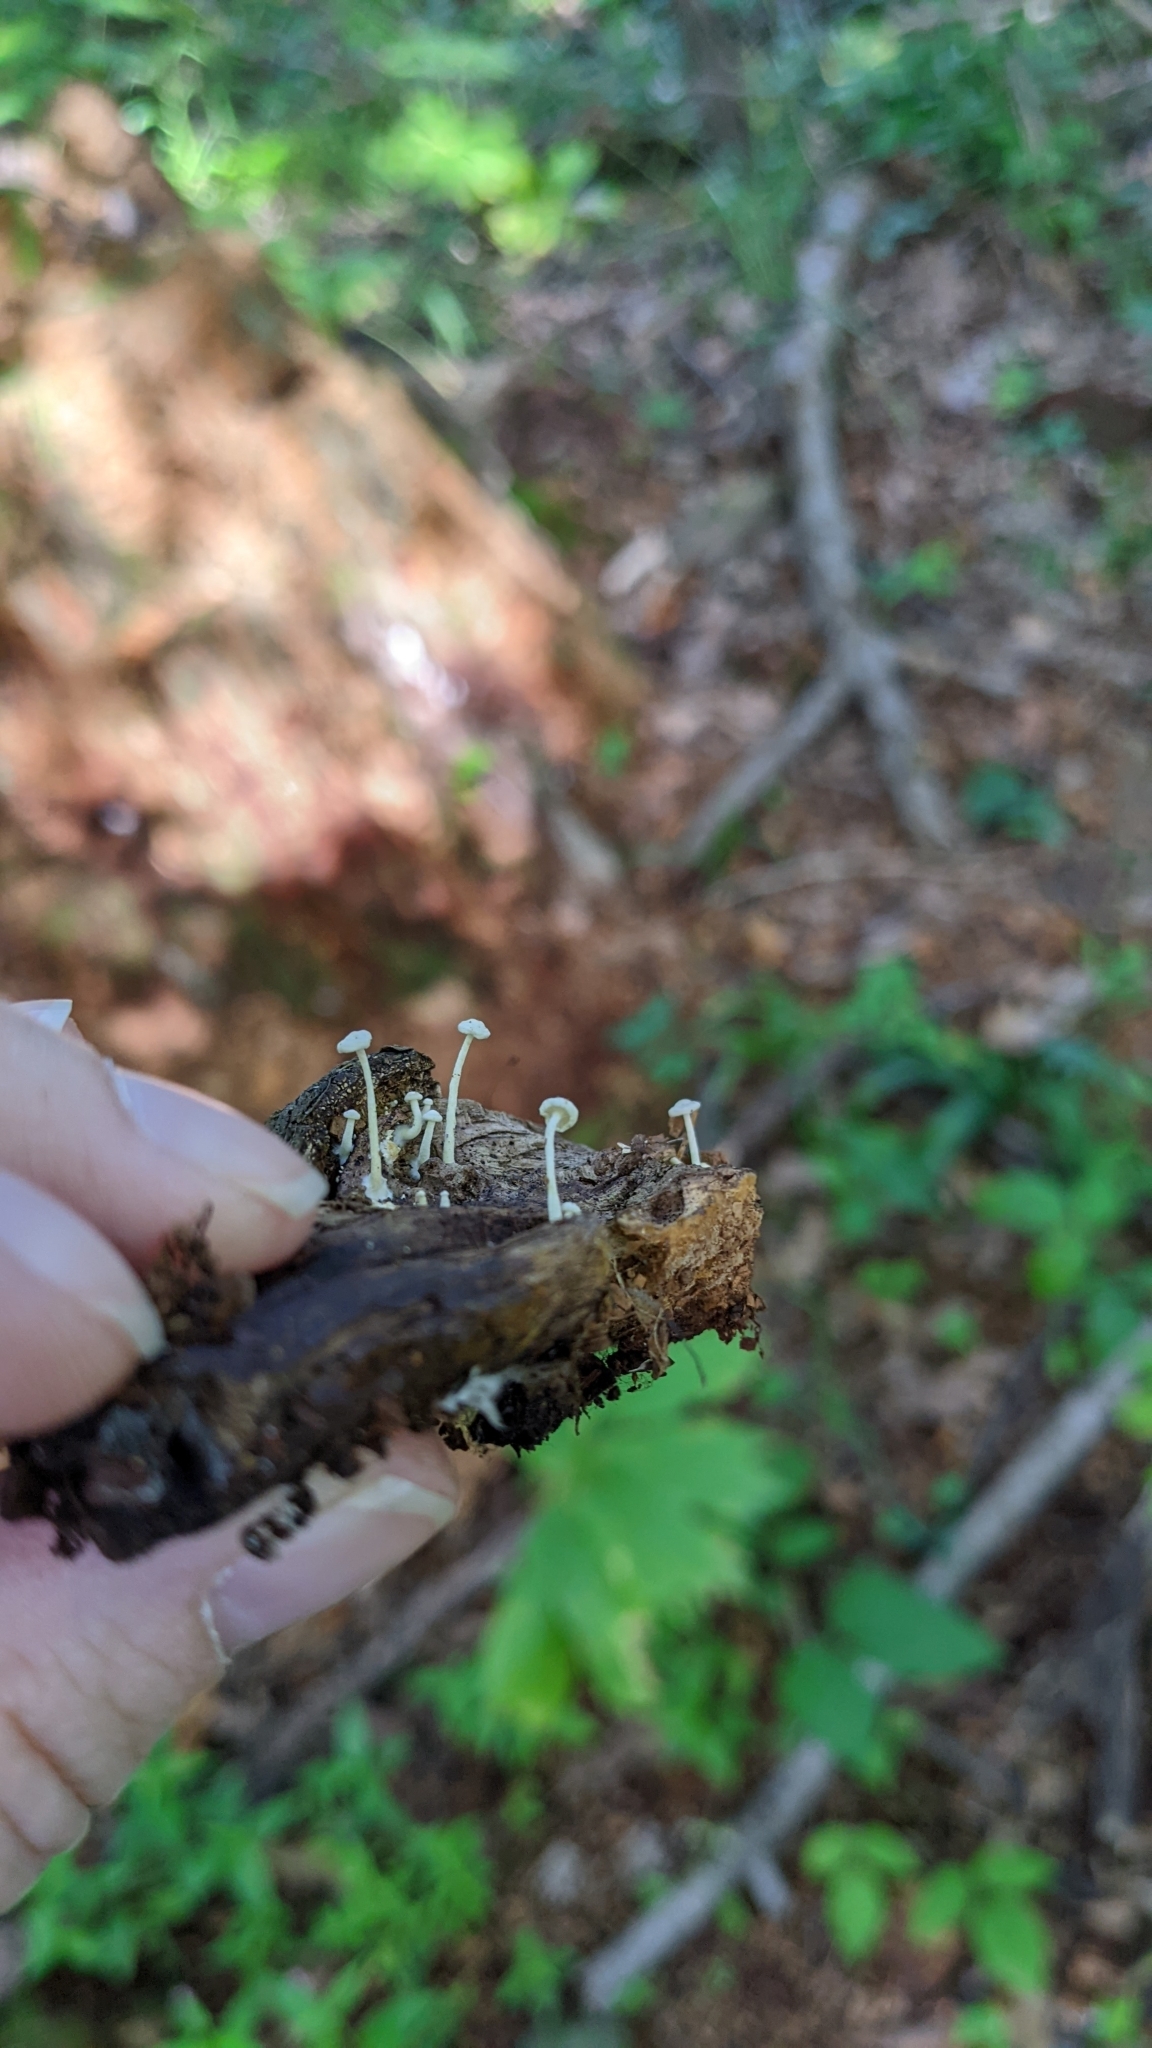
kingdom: Fungi
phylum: Basidiomycota
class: Agaricomycetes
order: Agaricales
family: Mycenaceae
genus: Resinomycena
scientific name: Resinomycena rhododendri
